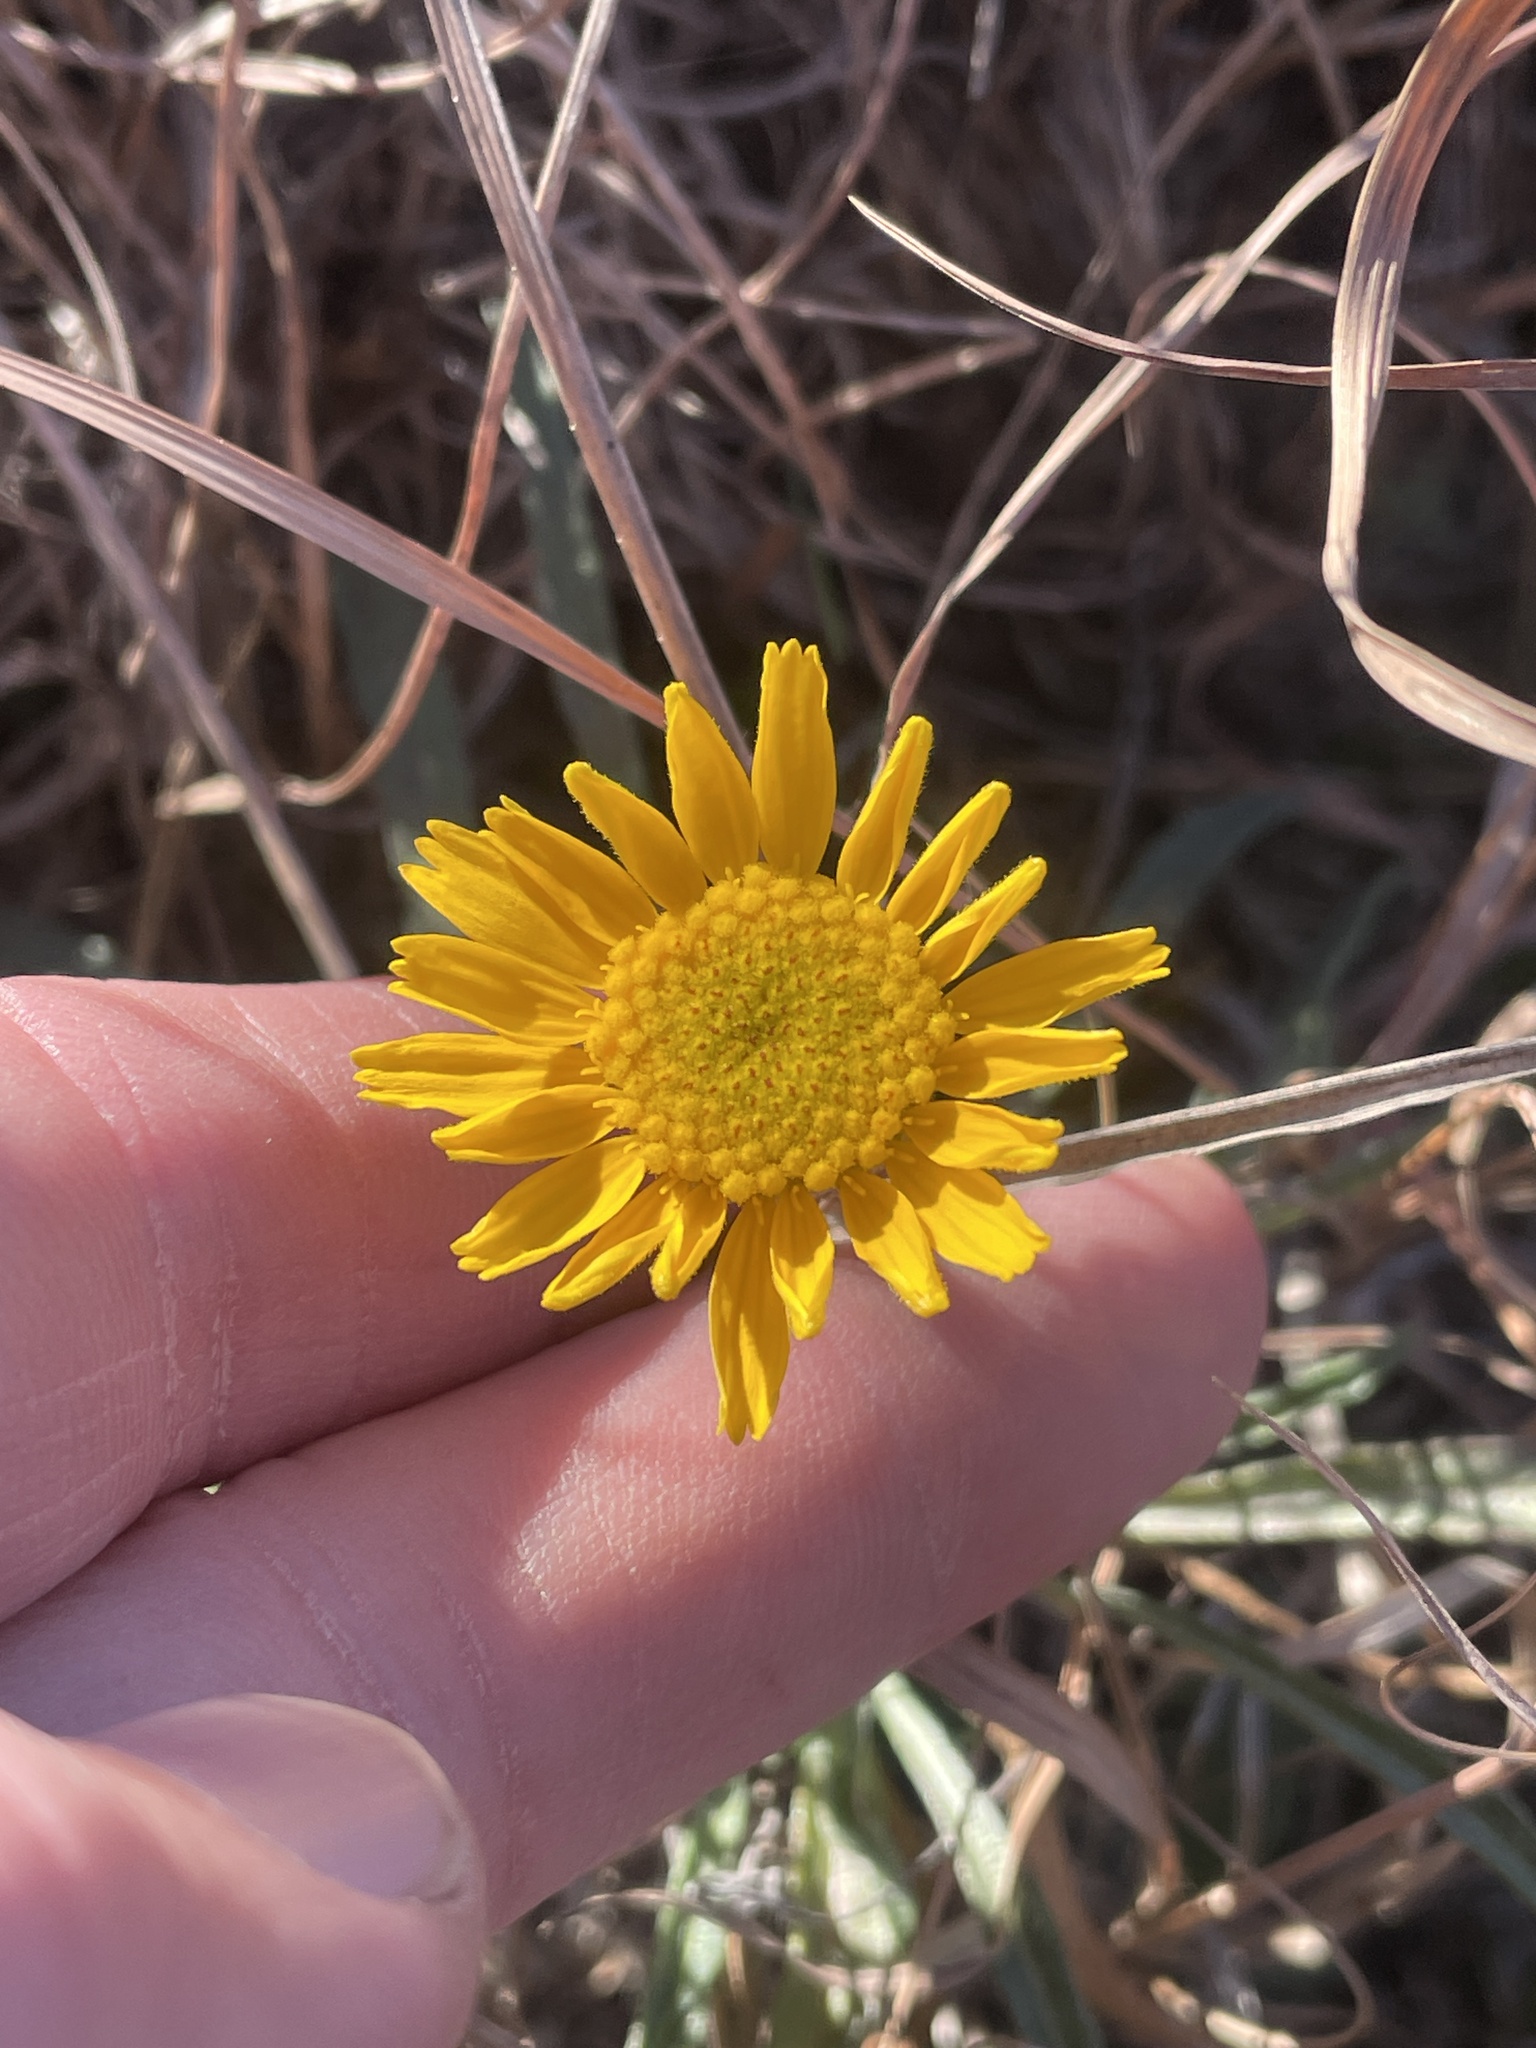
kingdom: Plantae
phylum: Tracheophyta
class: Magnoliopsida
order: Asterales
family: Asteraceae
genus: Tetraneuris
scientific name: Tetraneuris scaposa
